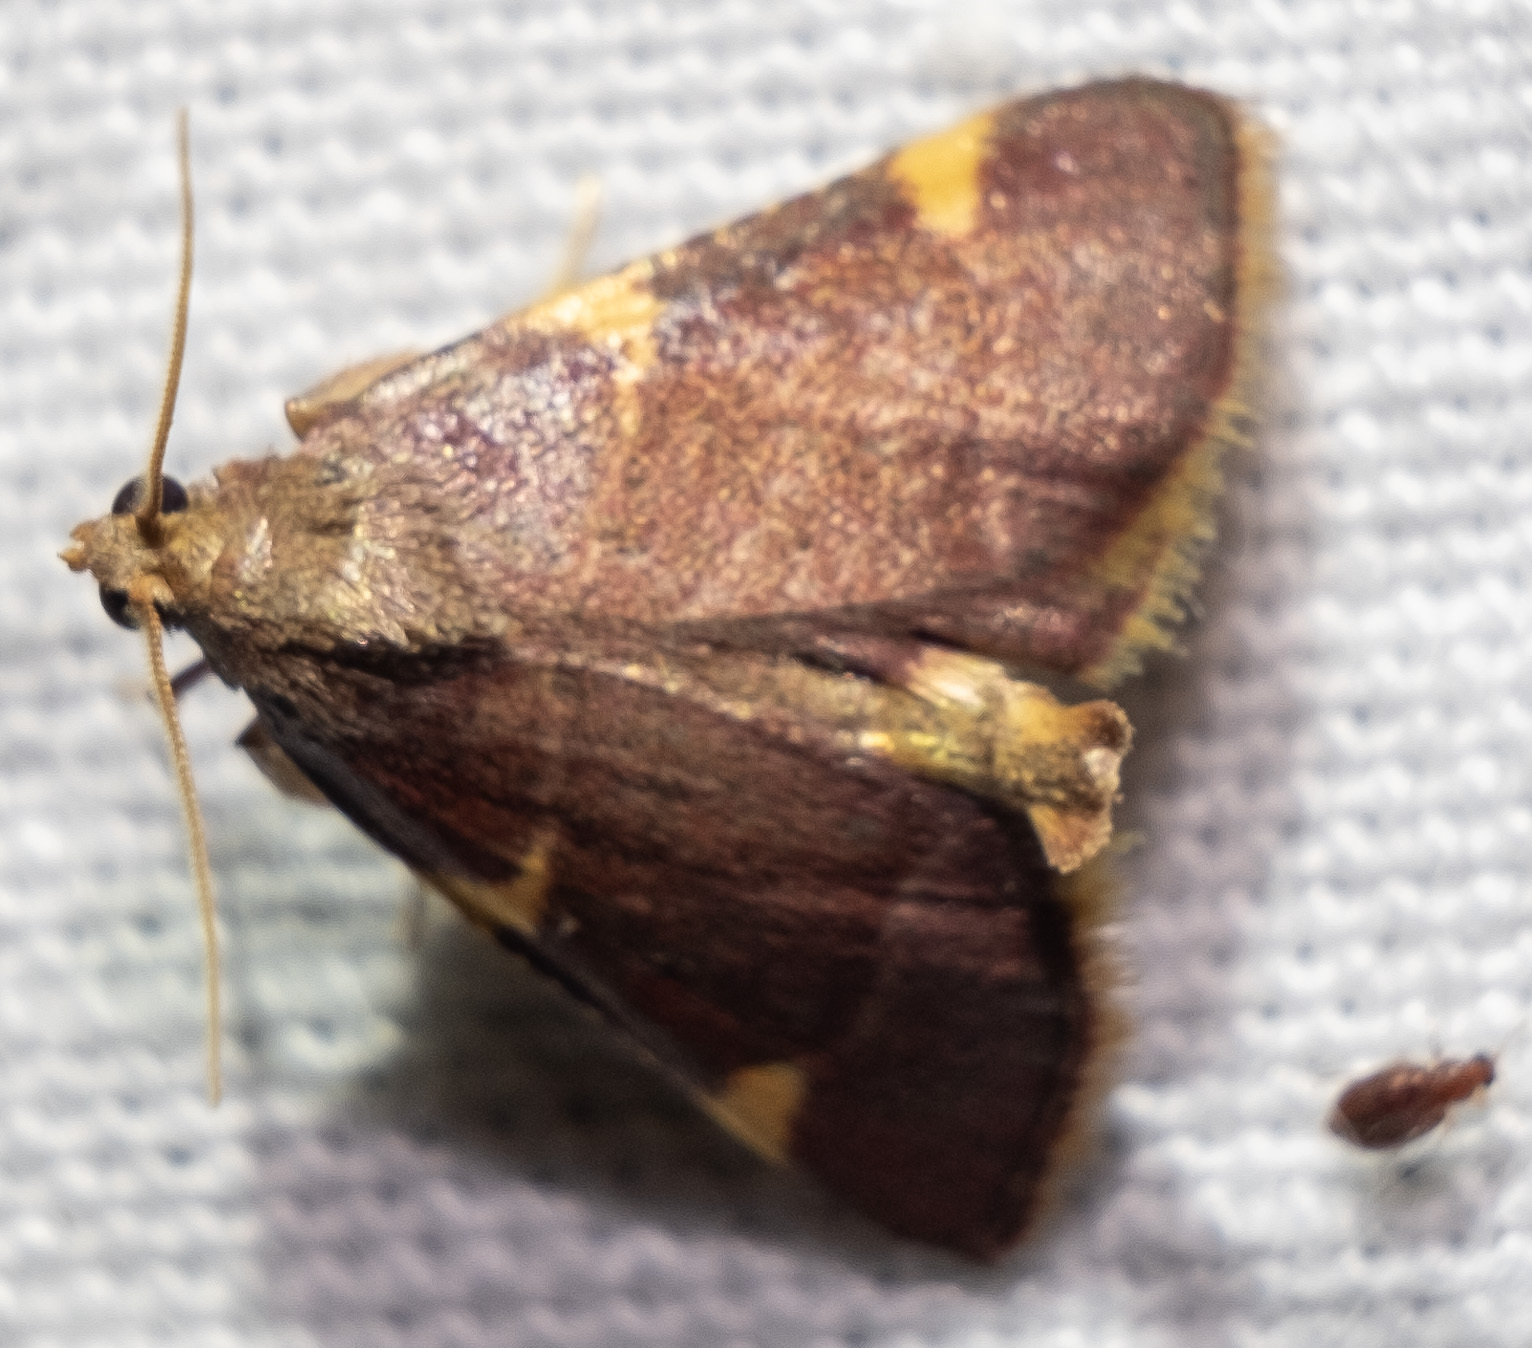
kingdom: Animalia
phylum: Arthropoda
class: Insecta
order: Lepidoptera
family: Pyralidae
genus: Hypsopygia
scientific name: Hypsopygia olinalis
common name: Yellow-fringed dolichomia moth
